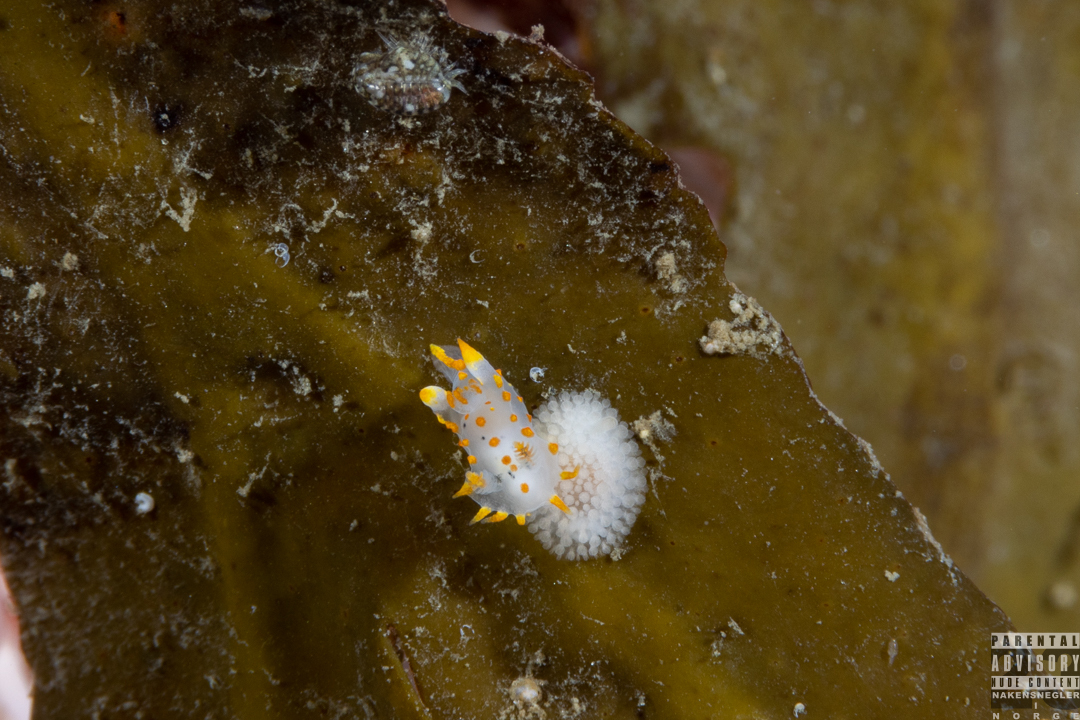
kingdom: Animalia
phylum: Mollusca
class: Gastropoda
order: Nudibranchia
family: Polyceridae
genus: Polycera
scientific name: Polycera norvegica
